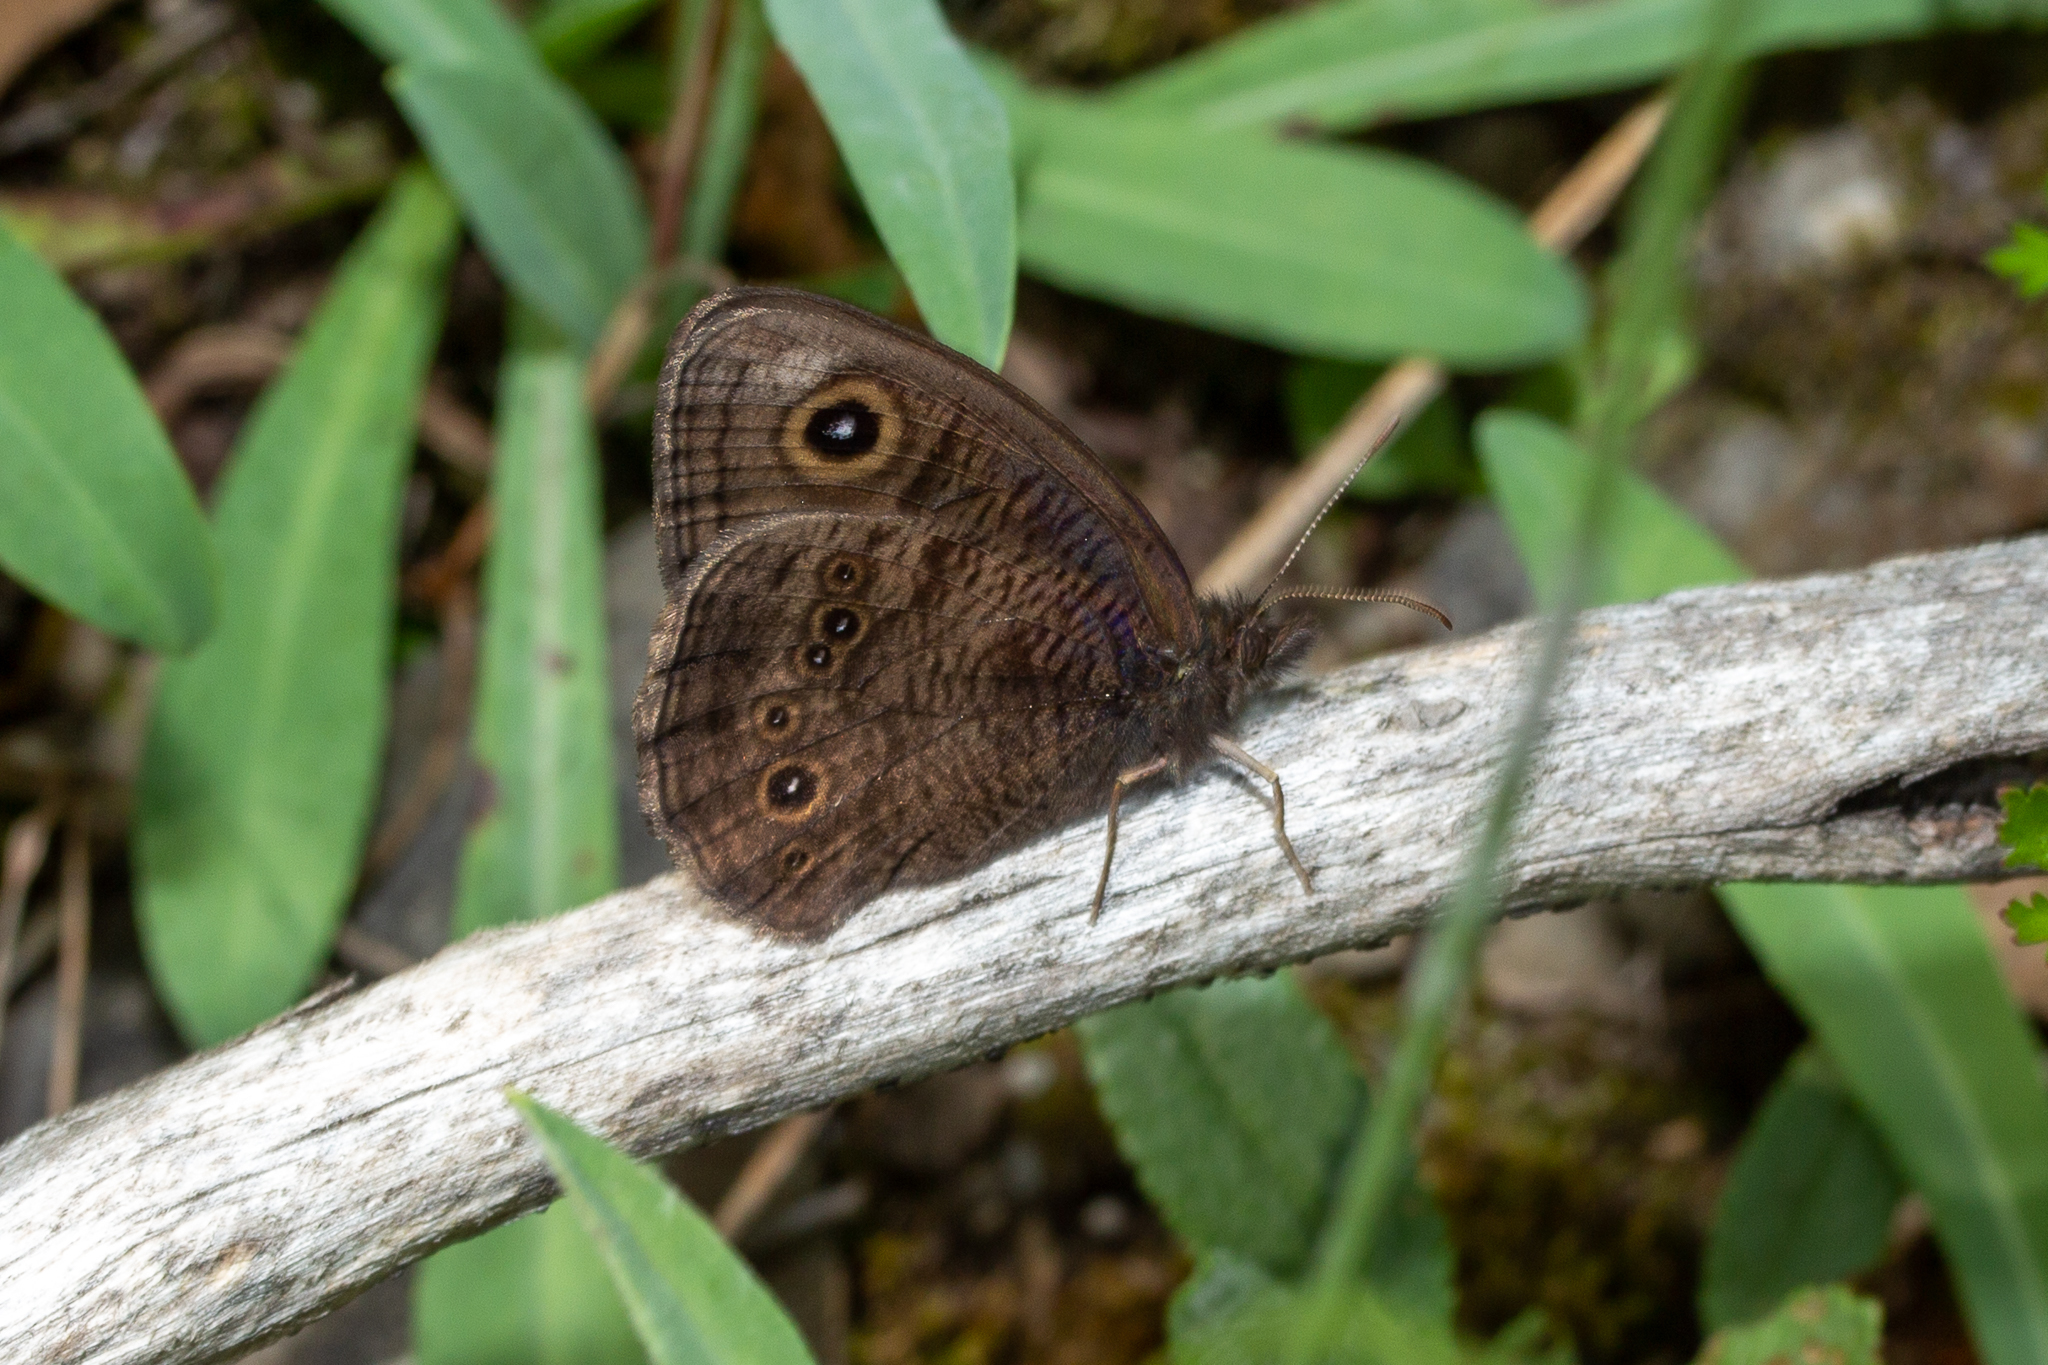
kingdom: Animalia
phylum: Arthropoda
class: Insecta
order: Lepidoptera
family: Nymphalidae
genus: Cercyonis
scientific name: Cercyonis pegala
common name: Common wood-nymph
